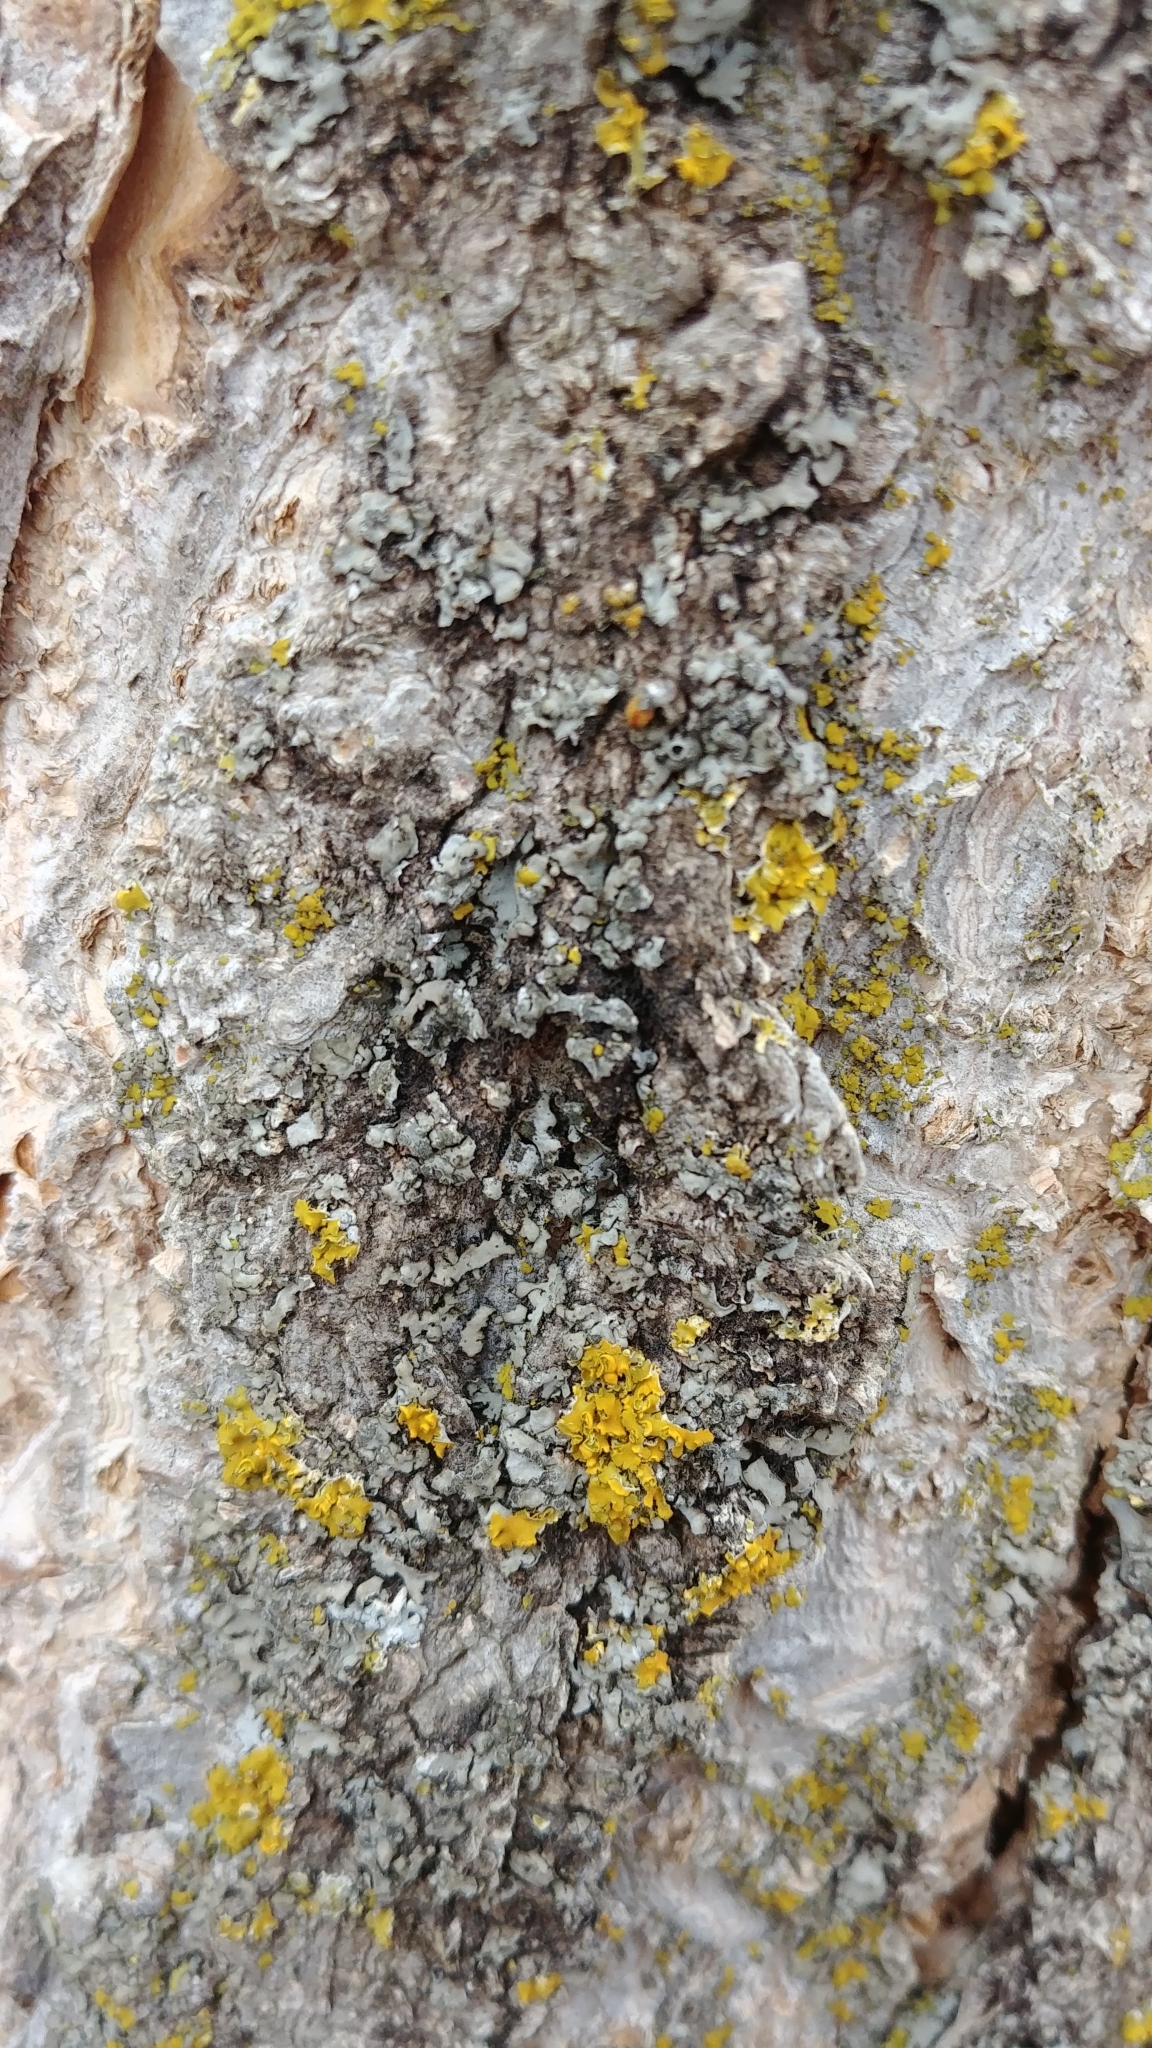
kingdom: Fungi
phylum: Ascomycota
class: Lecanoromycetes
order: Teloschistales
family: Teloschistaceae
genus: Oxneria
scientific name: Oxneria fallax
